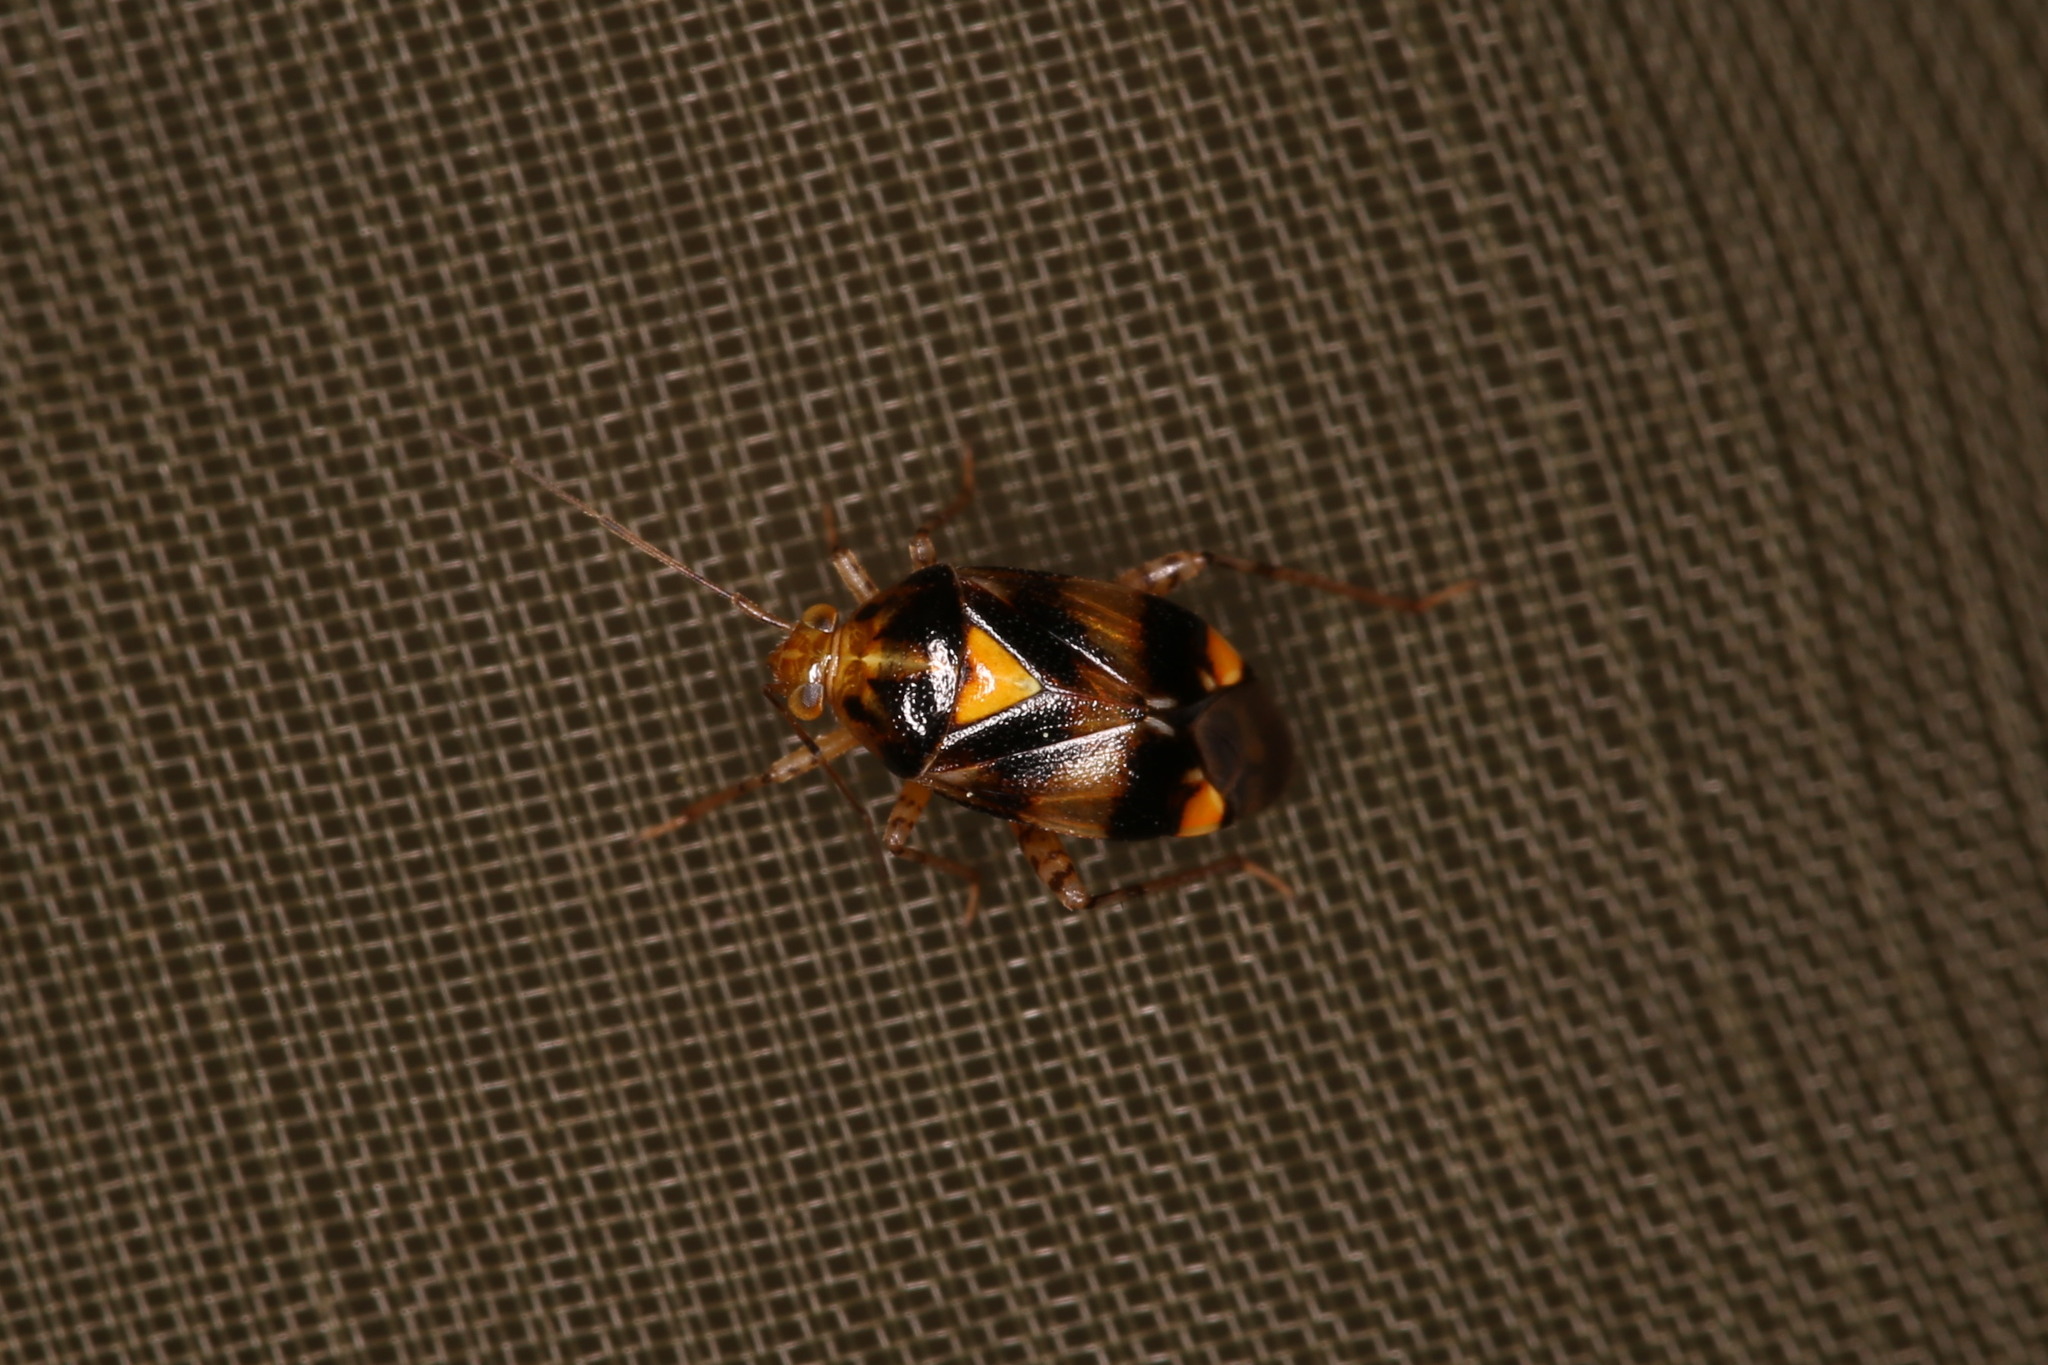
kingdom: Animalia
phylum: Arthropoda
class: Insecta
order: Hemiptera
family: Miridae
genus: Liocoris
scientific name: Liocoris tripustulatus
